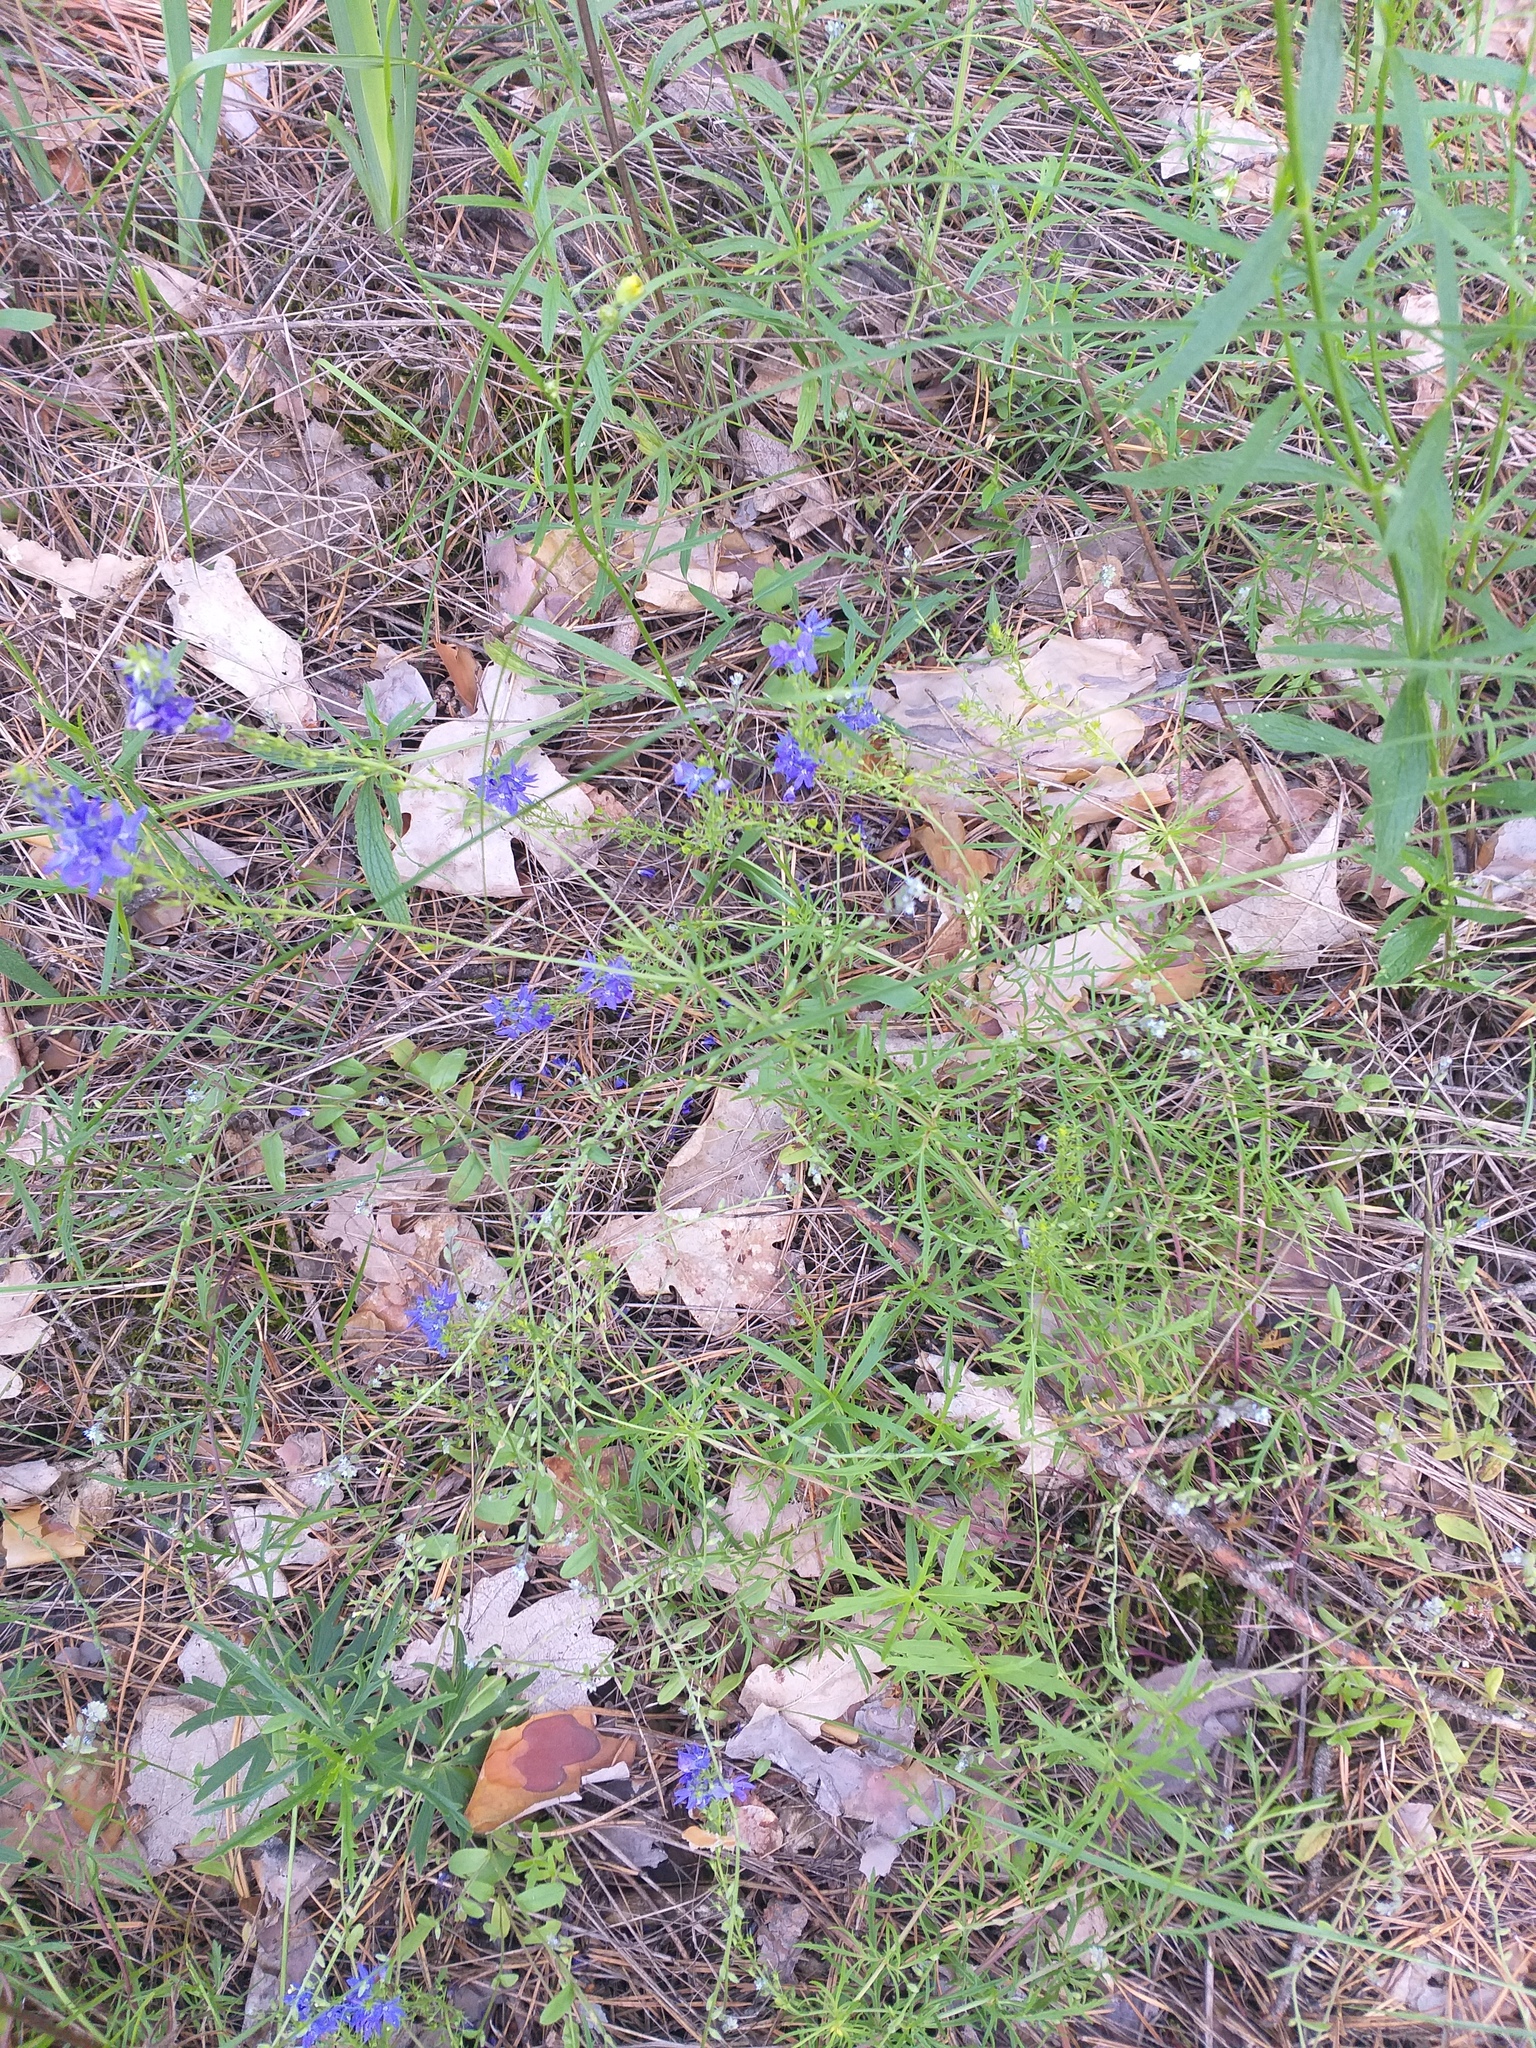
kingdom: Plantae
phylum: Tracheophyta
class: Magnoliopsida
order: Lamiales
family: Plantaginaceae
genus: Veronica
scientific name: Veronica austriaca
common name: Large speedwell
